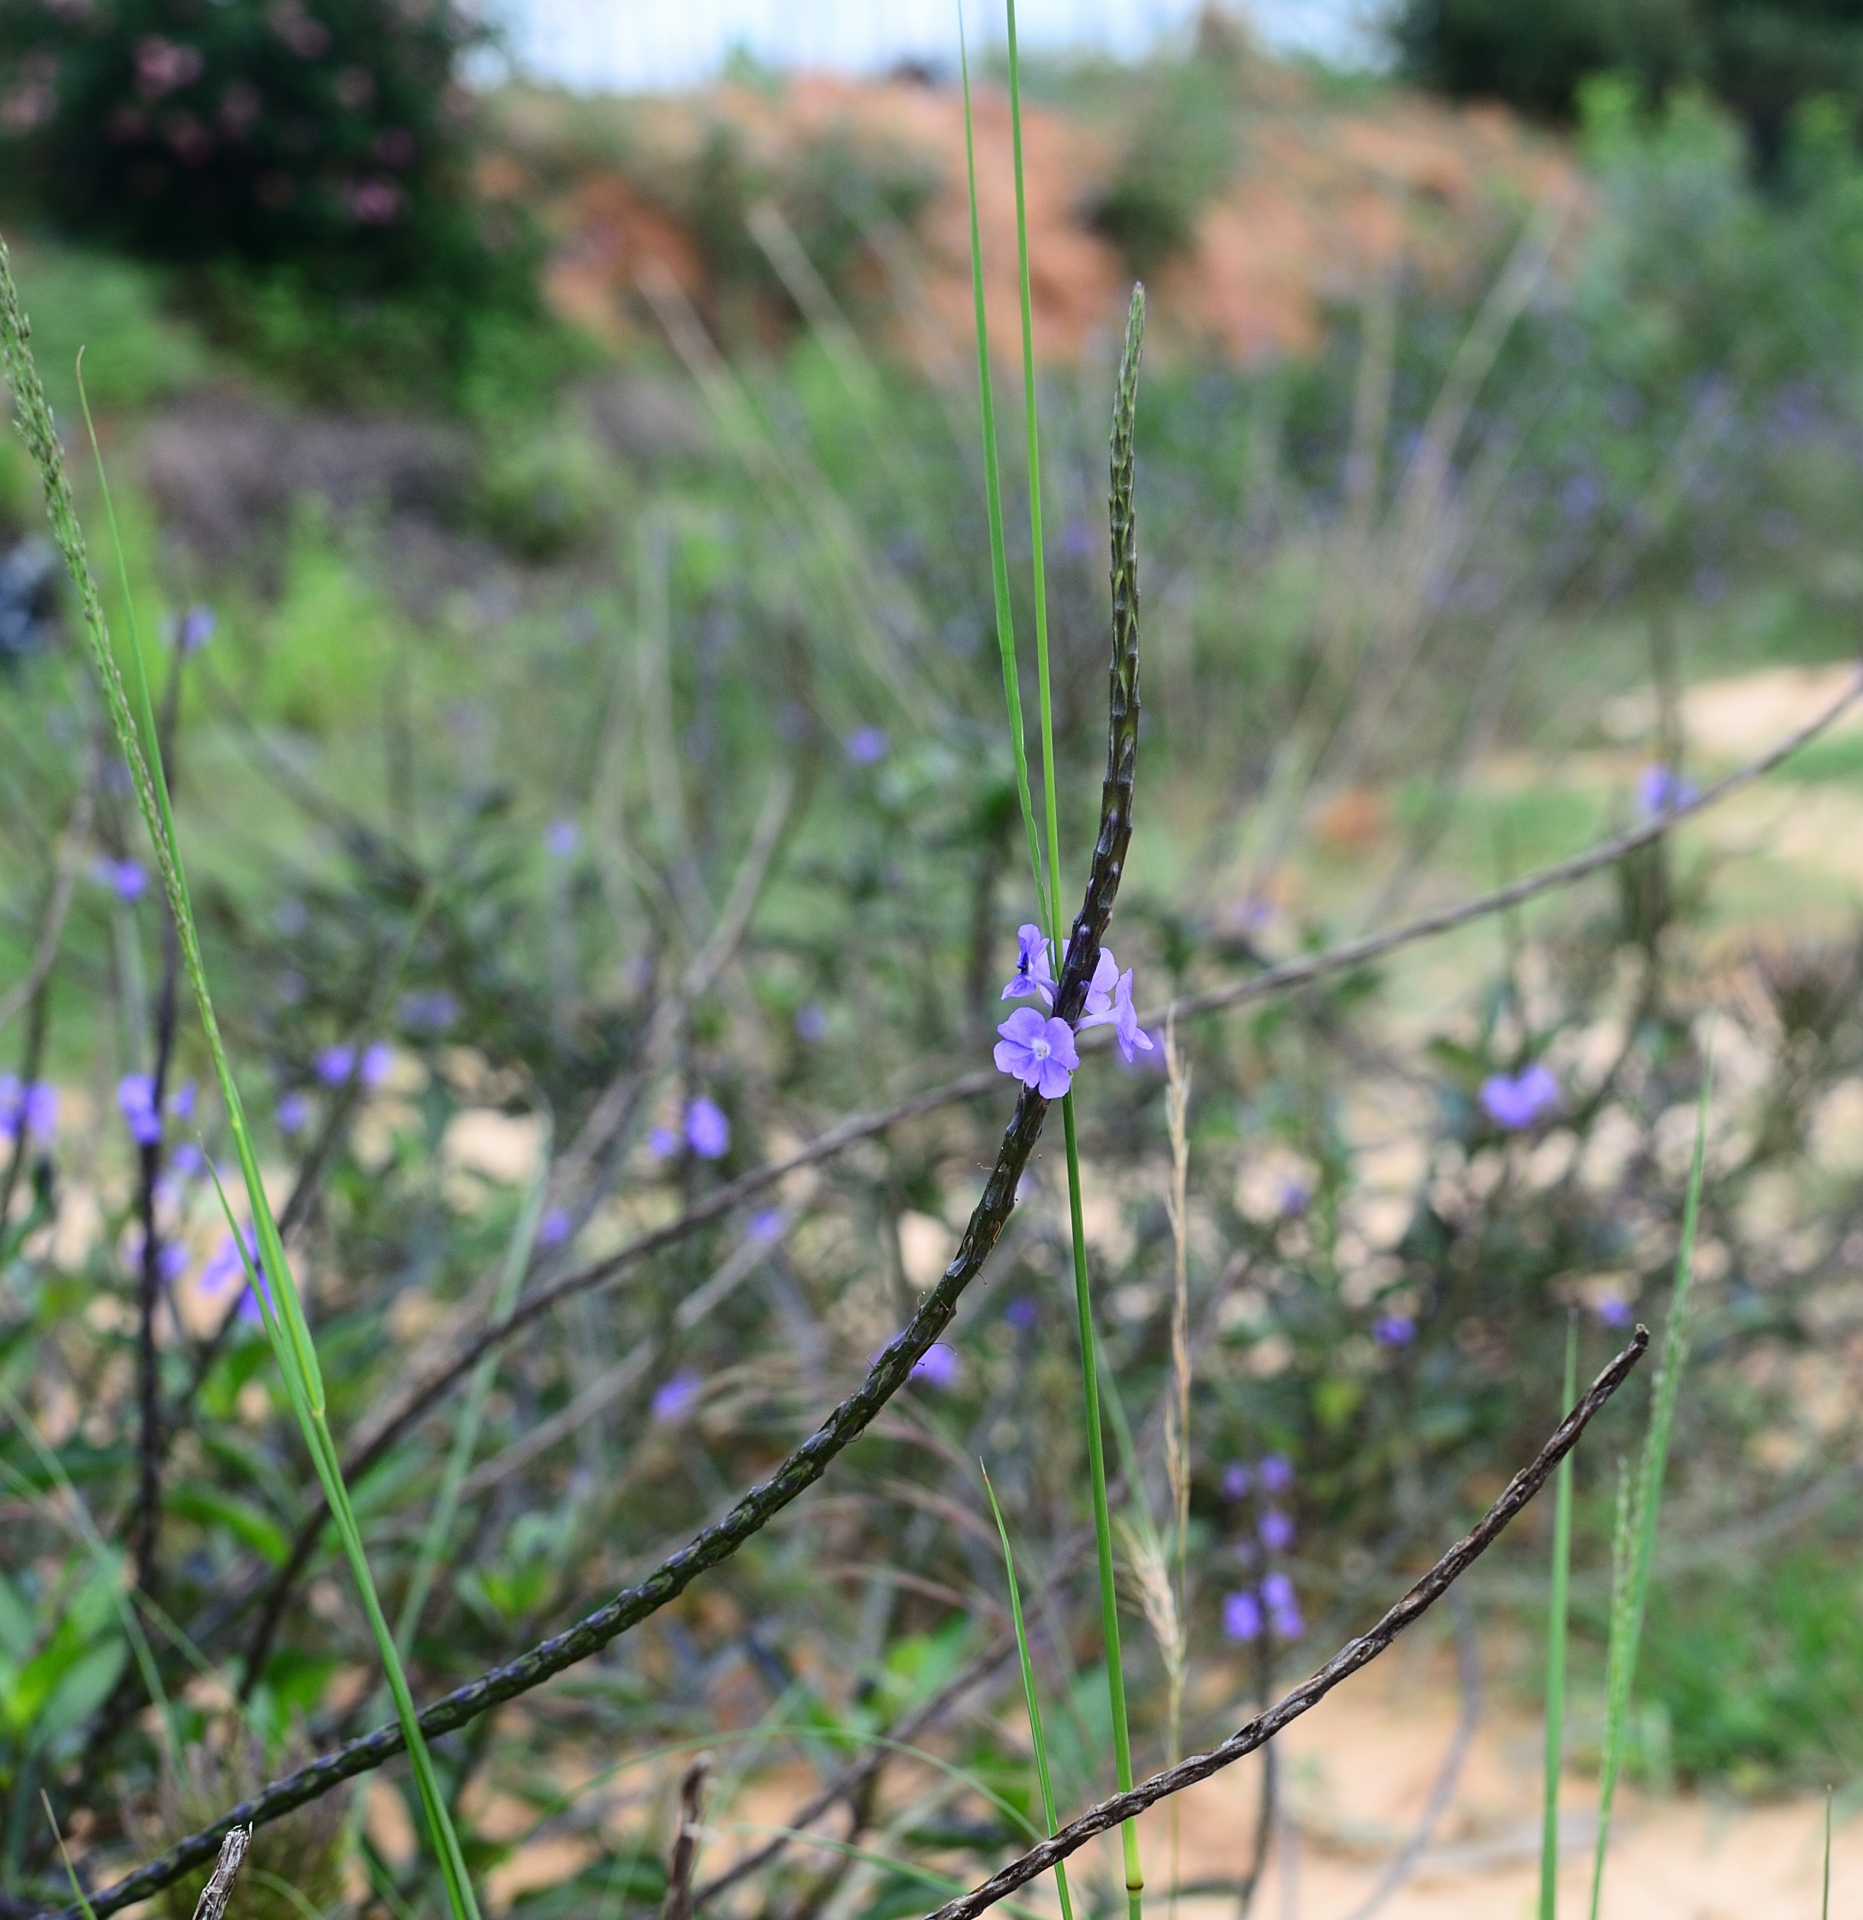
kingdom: Plantae
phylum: Tracheophyta
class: Magnoliopsida
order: Lamiales
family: Verbenaceae
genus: Stachytarpheta
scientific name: Stachytarpheta jamaicensis
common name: Light-blue snakeweed
